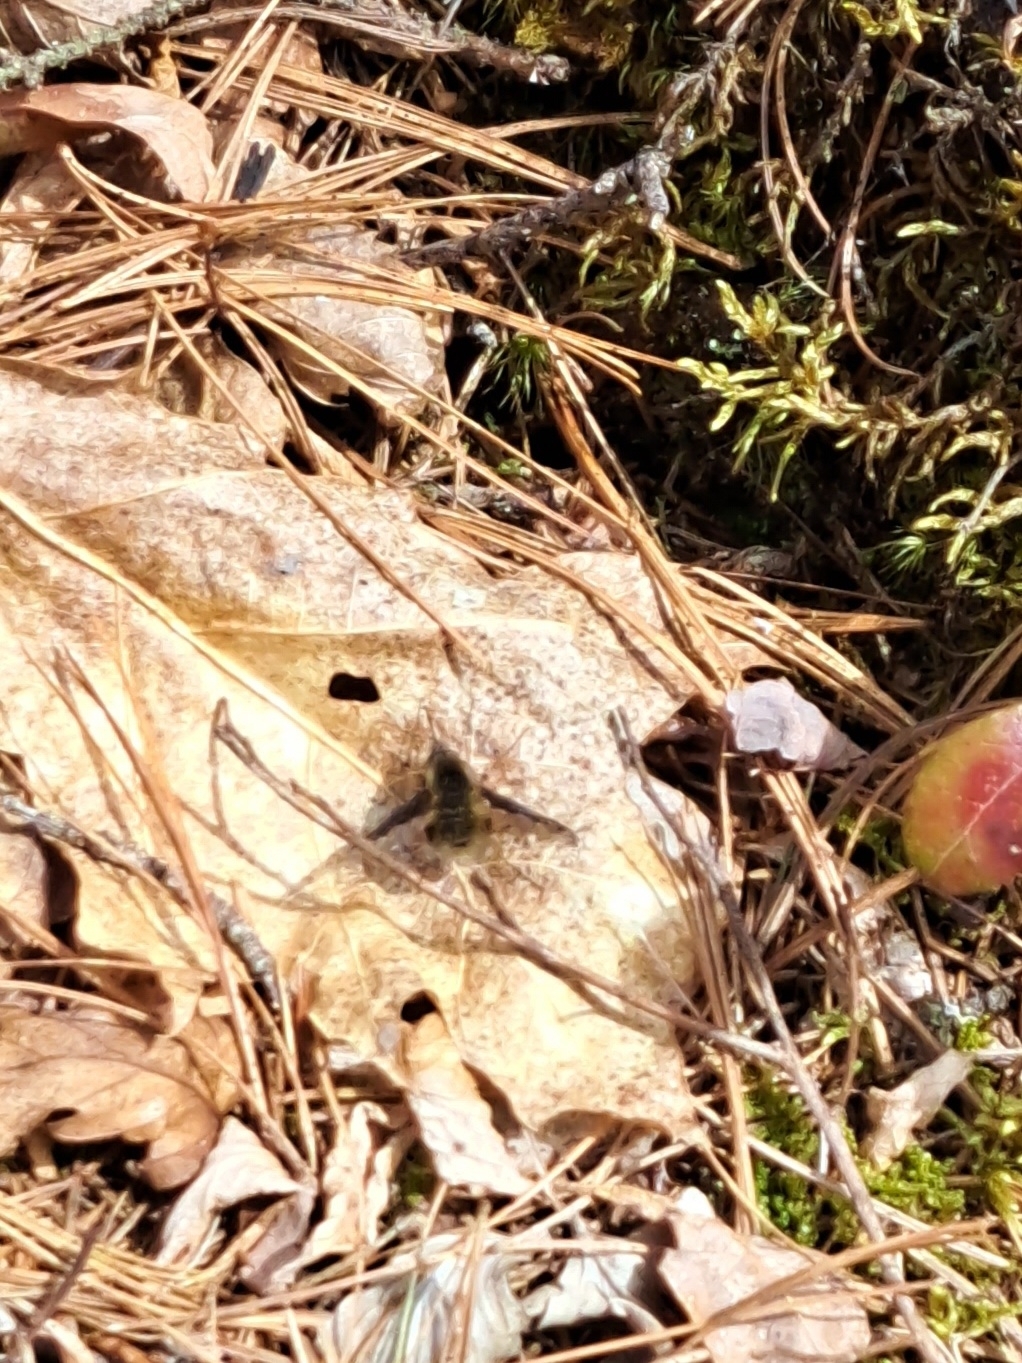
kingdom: Animalia
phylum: Arthropoda
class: Insecta
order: Diptera
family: Bombyliidae
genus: Bombylius
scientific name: Bombylius major
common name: Bee fly
